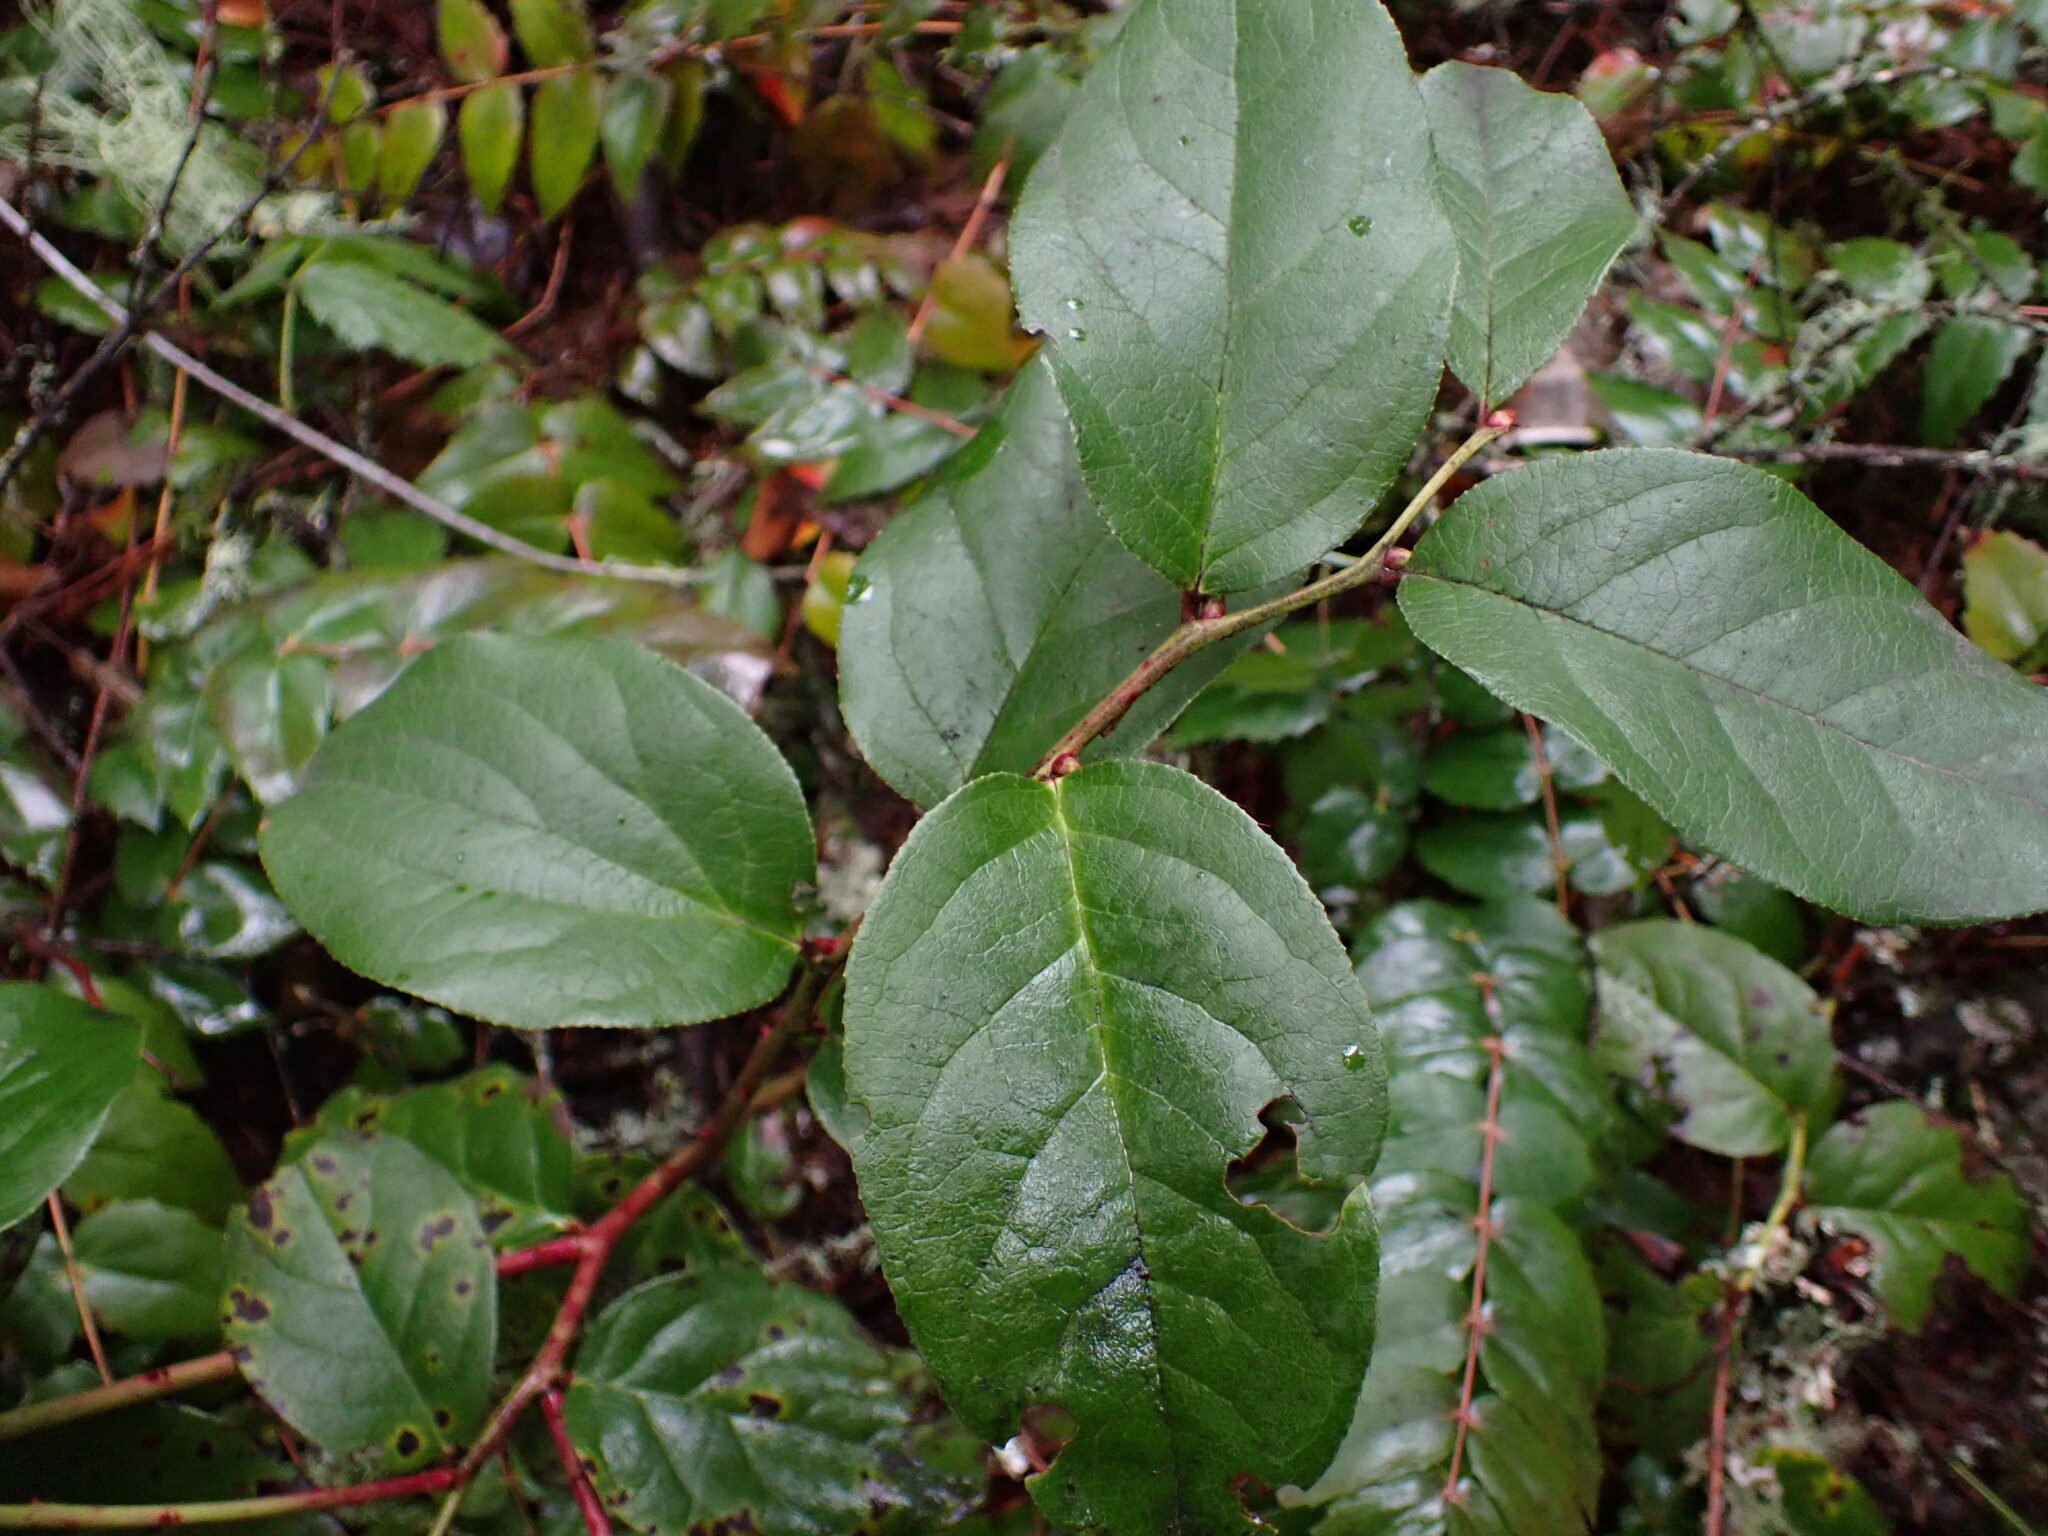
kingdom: Plantae
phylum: Tracheophyta
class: Magnoliopsida
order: Ericales
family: Ericaceae
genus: Gaultheria
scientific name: Gaultheria shallon
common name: Shallon
